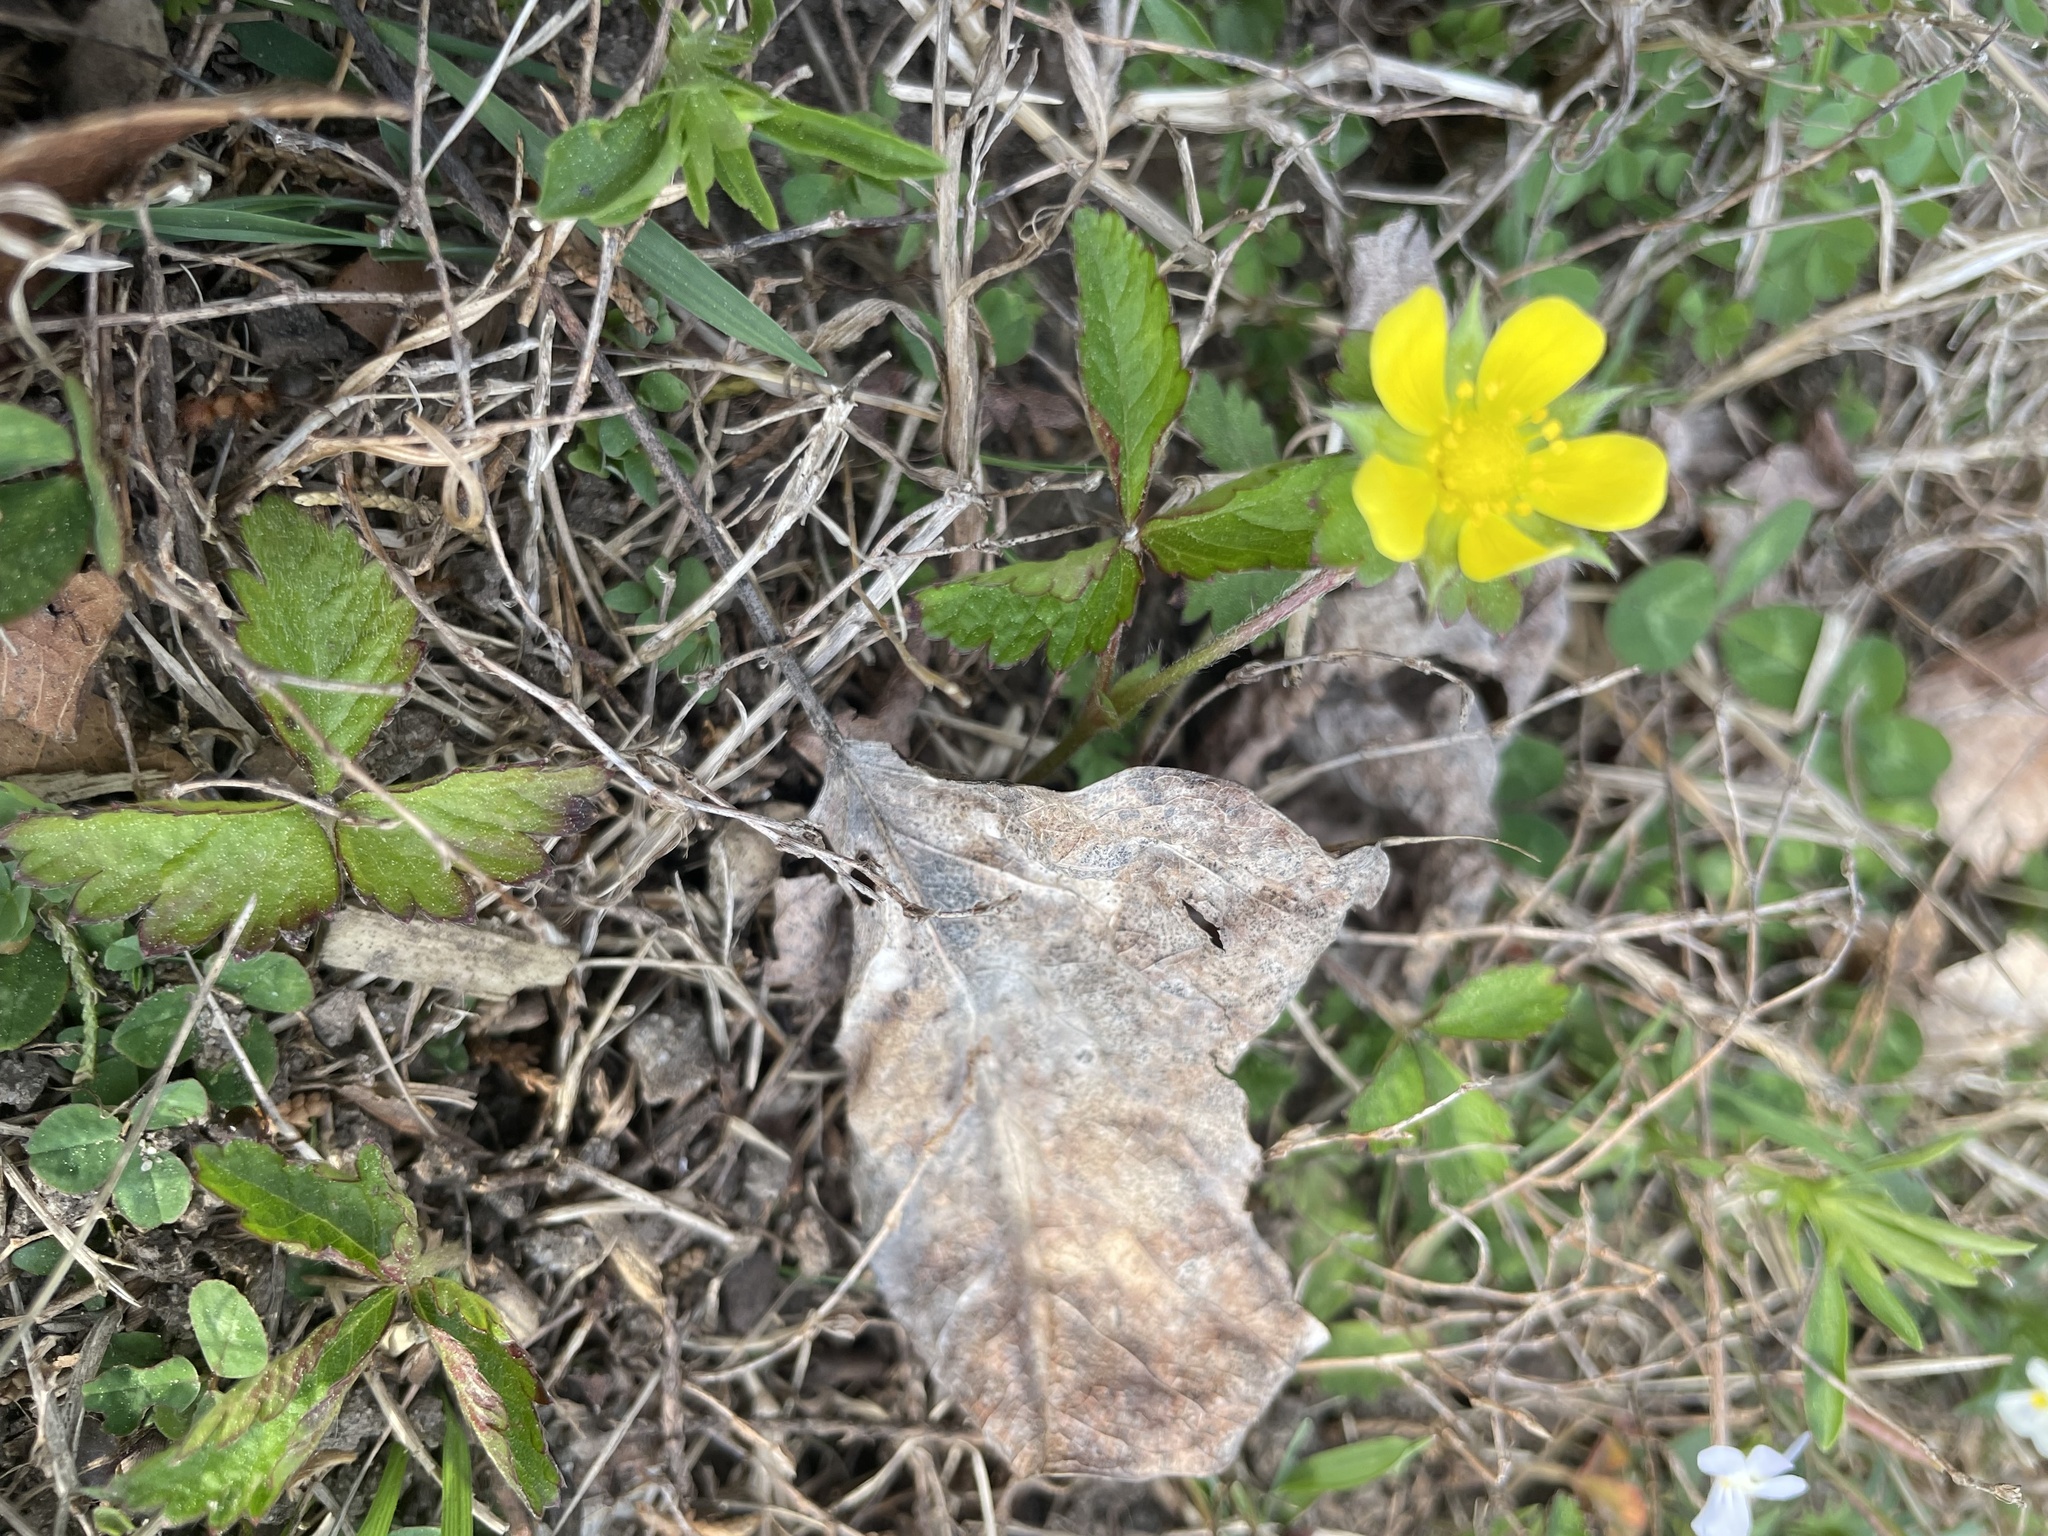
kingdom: Plantae
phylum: Tracheophyta
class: Magnoliopsida
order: Rosales
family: Rosaceae
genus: Potentilla
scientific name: Potentilla indica
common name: Yellow-flowered strawberry
